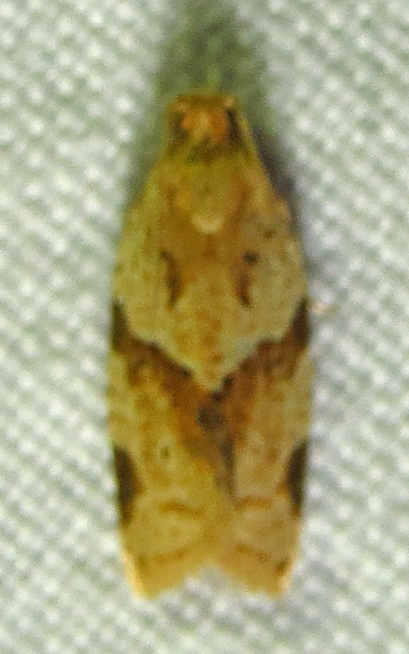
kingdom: Animalia
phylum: Arthropoda
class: Insecta
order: Lepidoptera
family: Tortricidae
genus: Clepsis
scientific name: Clepsis peritana
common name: Garden tortrix
